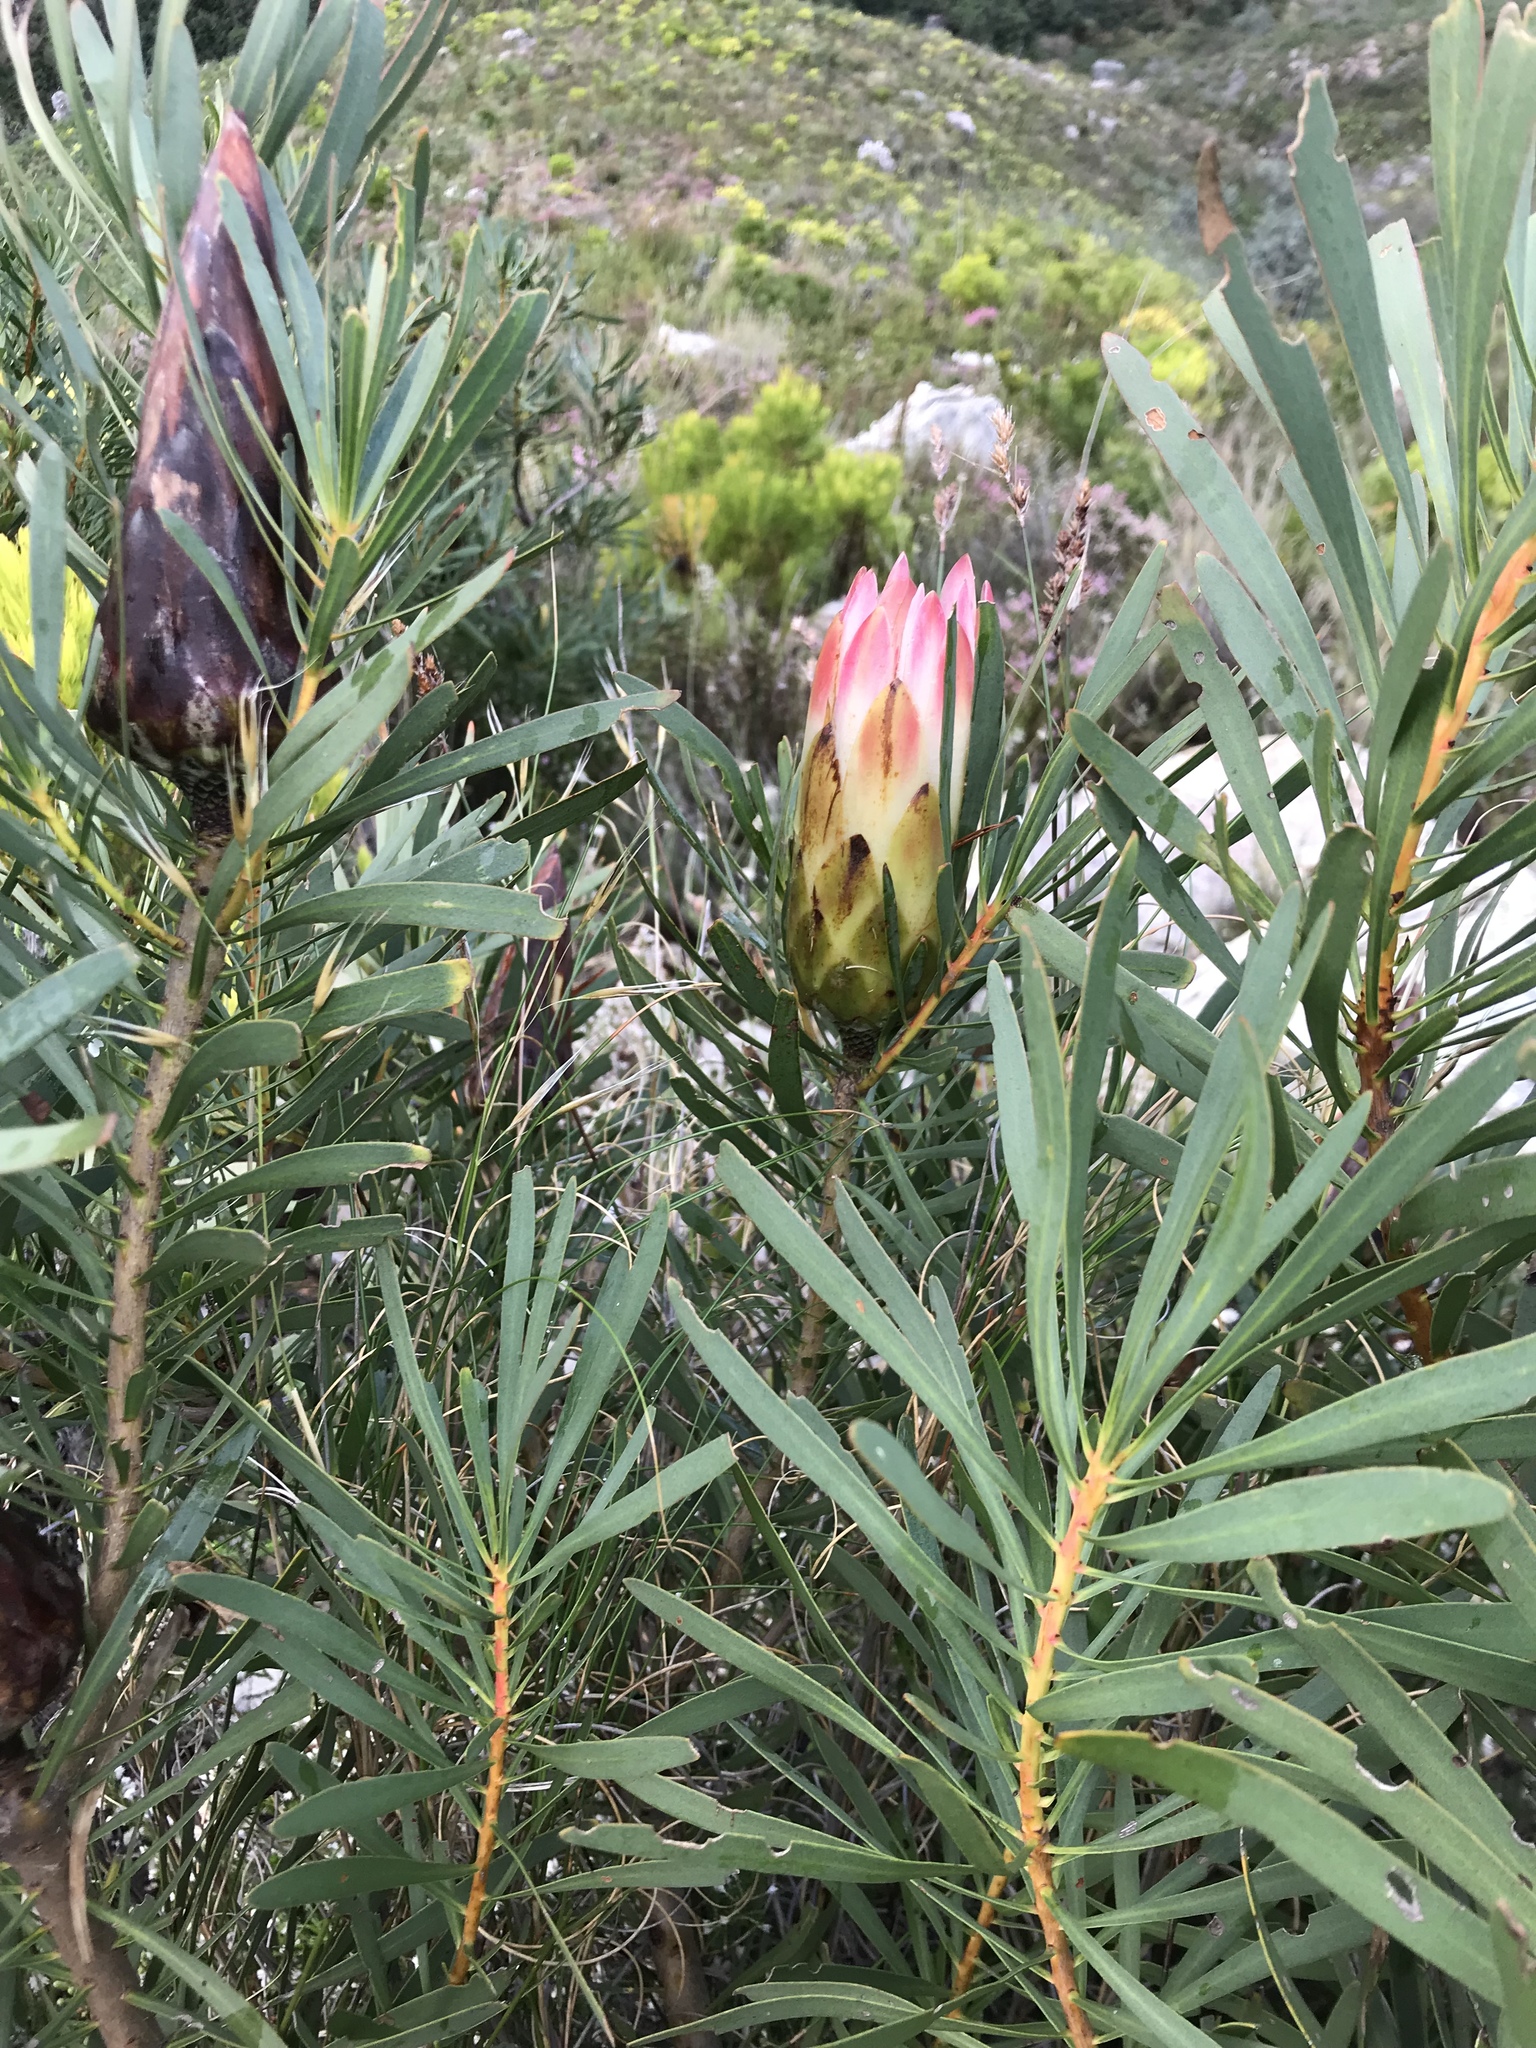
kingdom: Plantae
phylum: Tracheophyta
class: Magnoliopsida
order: Proteales
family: Proteaceae
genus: Protea
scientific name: Protea repens
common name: Sugarbush
